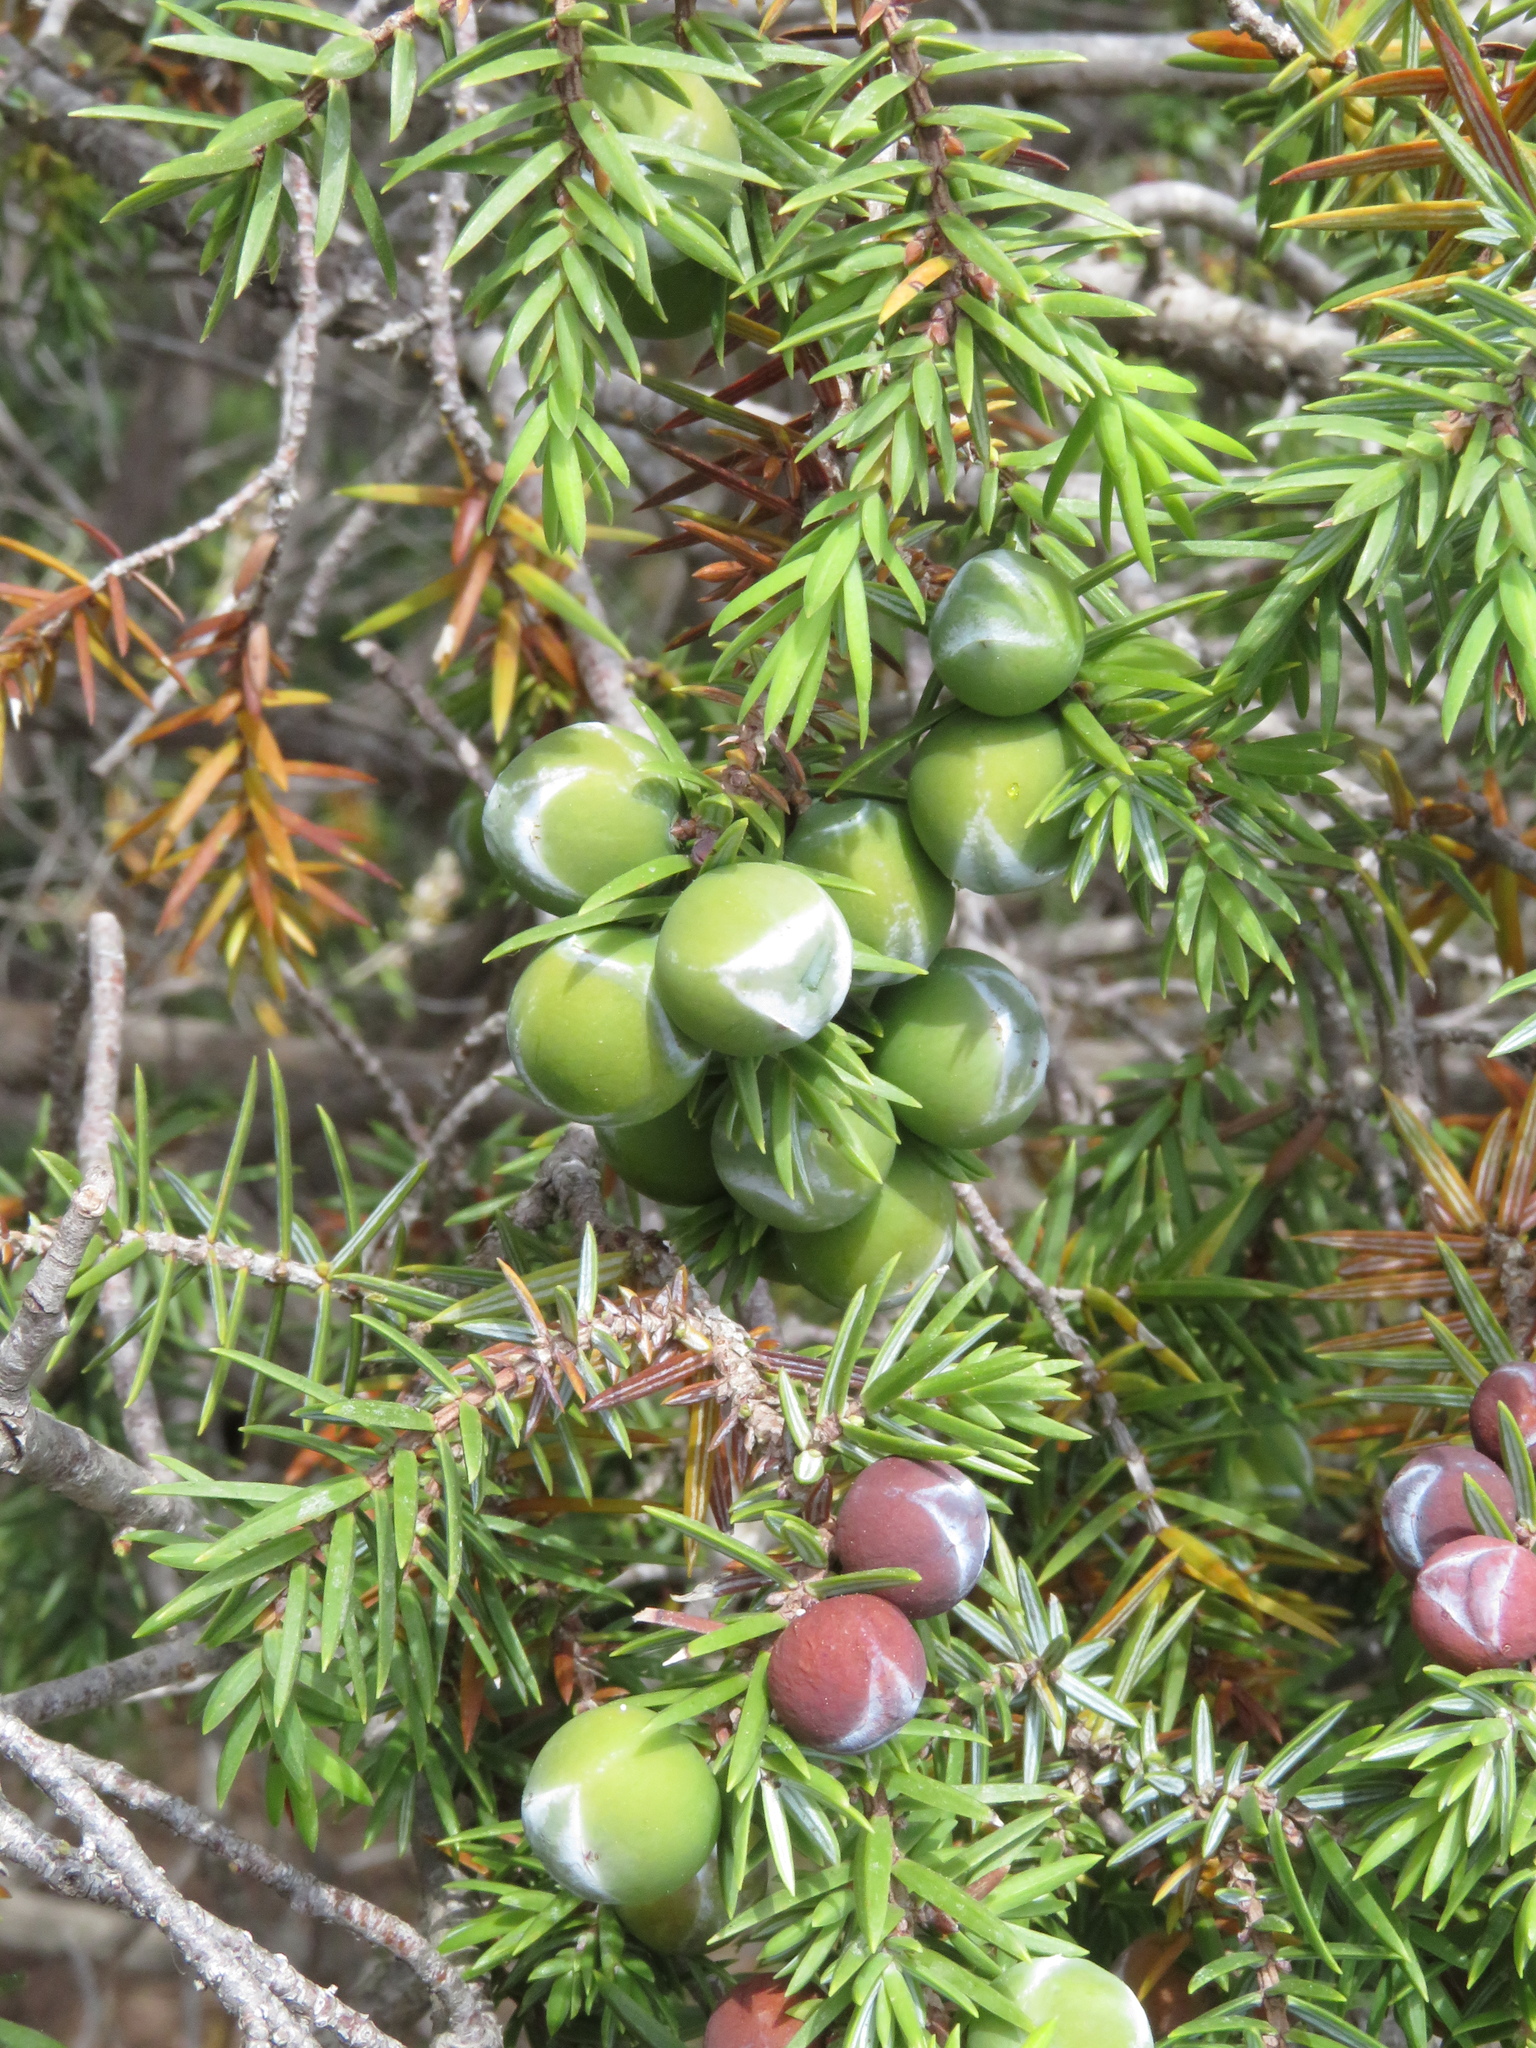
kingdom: Plantae
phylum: Tracheophyta
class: Pinopsida
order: Pinales
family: Cupressaceae
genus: Juniperus
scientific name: Juniperus oxycedrus
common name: Prickly juniper
